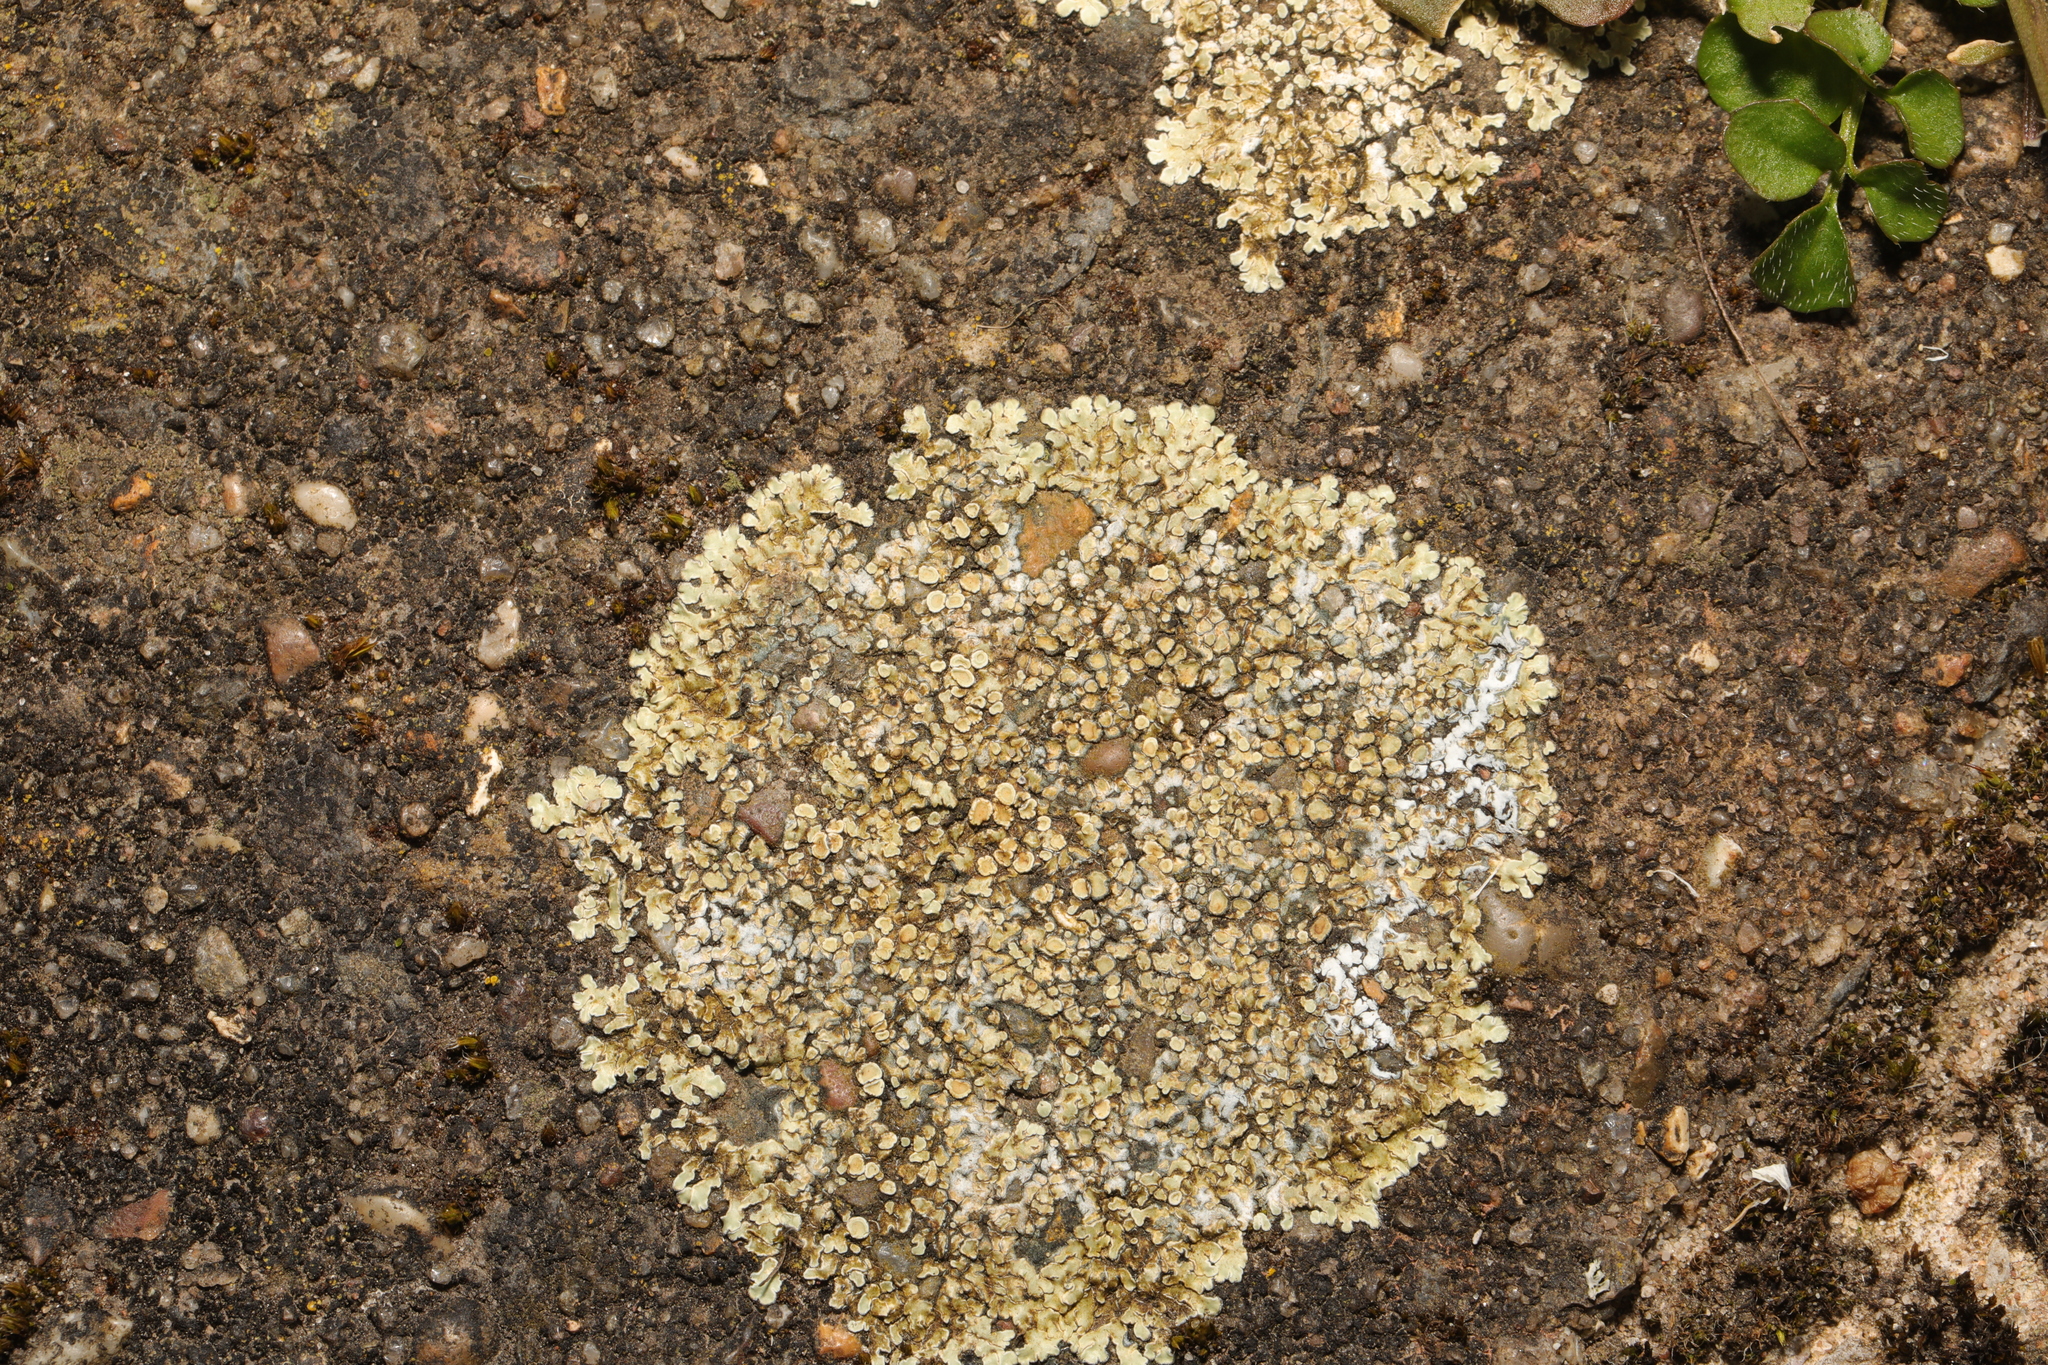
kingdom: Fungi
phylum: Ascomycota
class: Lecanoromycetes
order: Lecanorales
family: Lecanoraceae
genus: Protoparmeliopsis
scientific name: Protoparmeliopsis muralis
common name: Stonewall rim lichen
